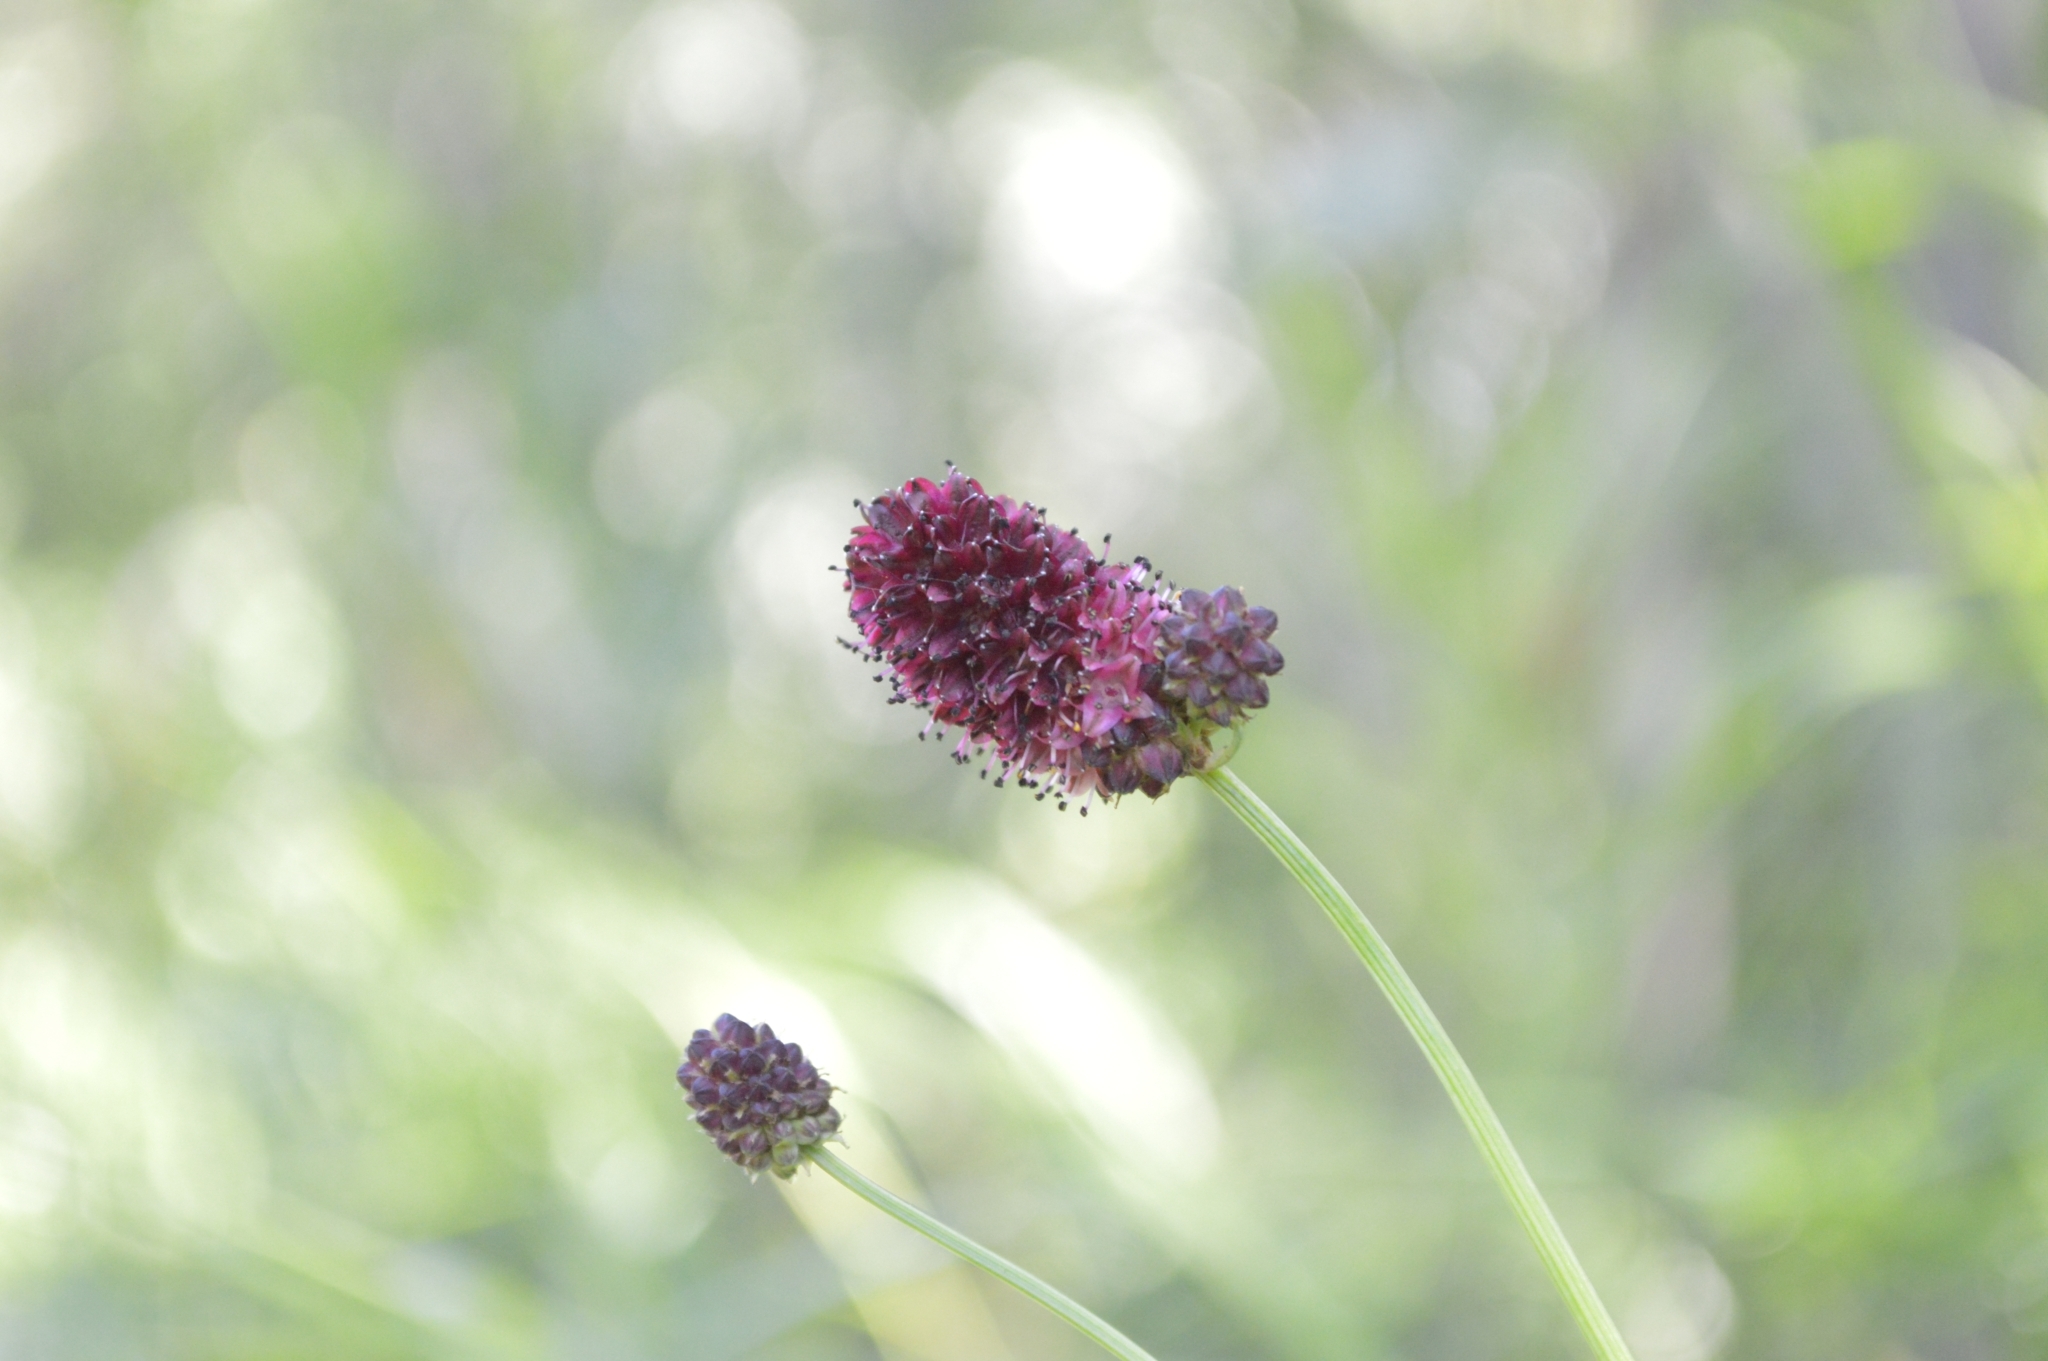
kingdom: Plantae
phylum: Tracheophyta
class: Magnoliopsida
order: Rosales
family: Rosaceae
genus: Sanguisorba
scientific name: Sanguisorba officinalis
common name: Great burnet
